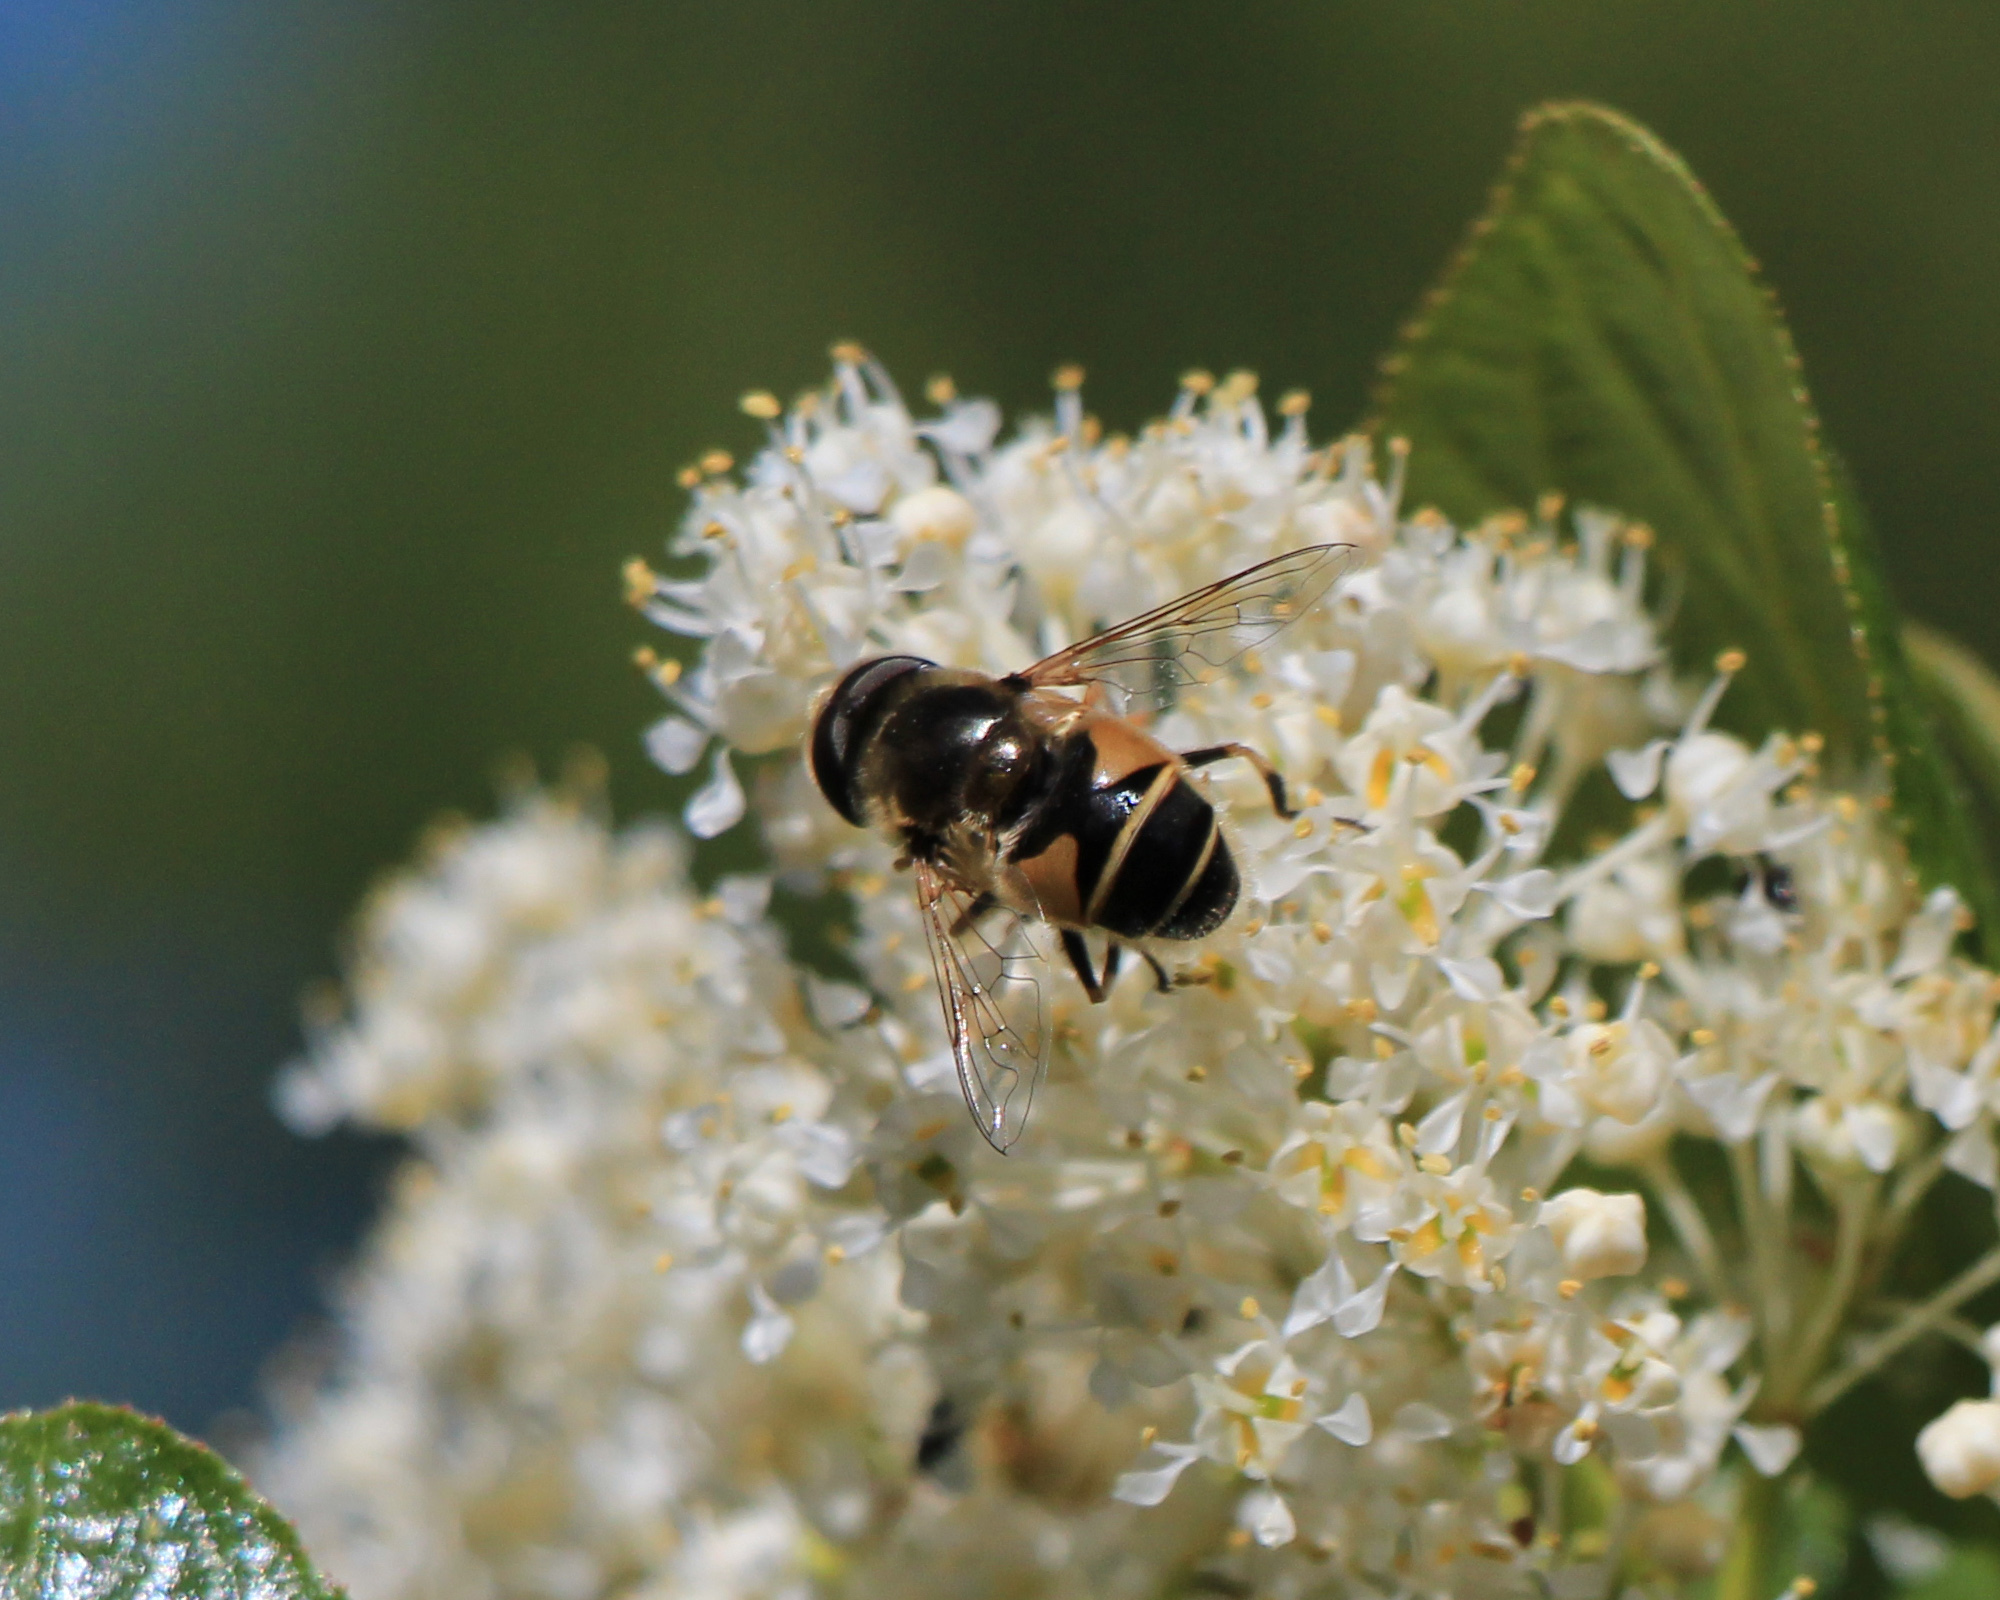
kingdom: Animalia
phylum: Arthropoda
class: Insecta
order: Diptera
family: Syrphidae
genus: Eristalis
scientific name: Eristalis hirta
